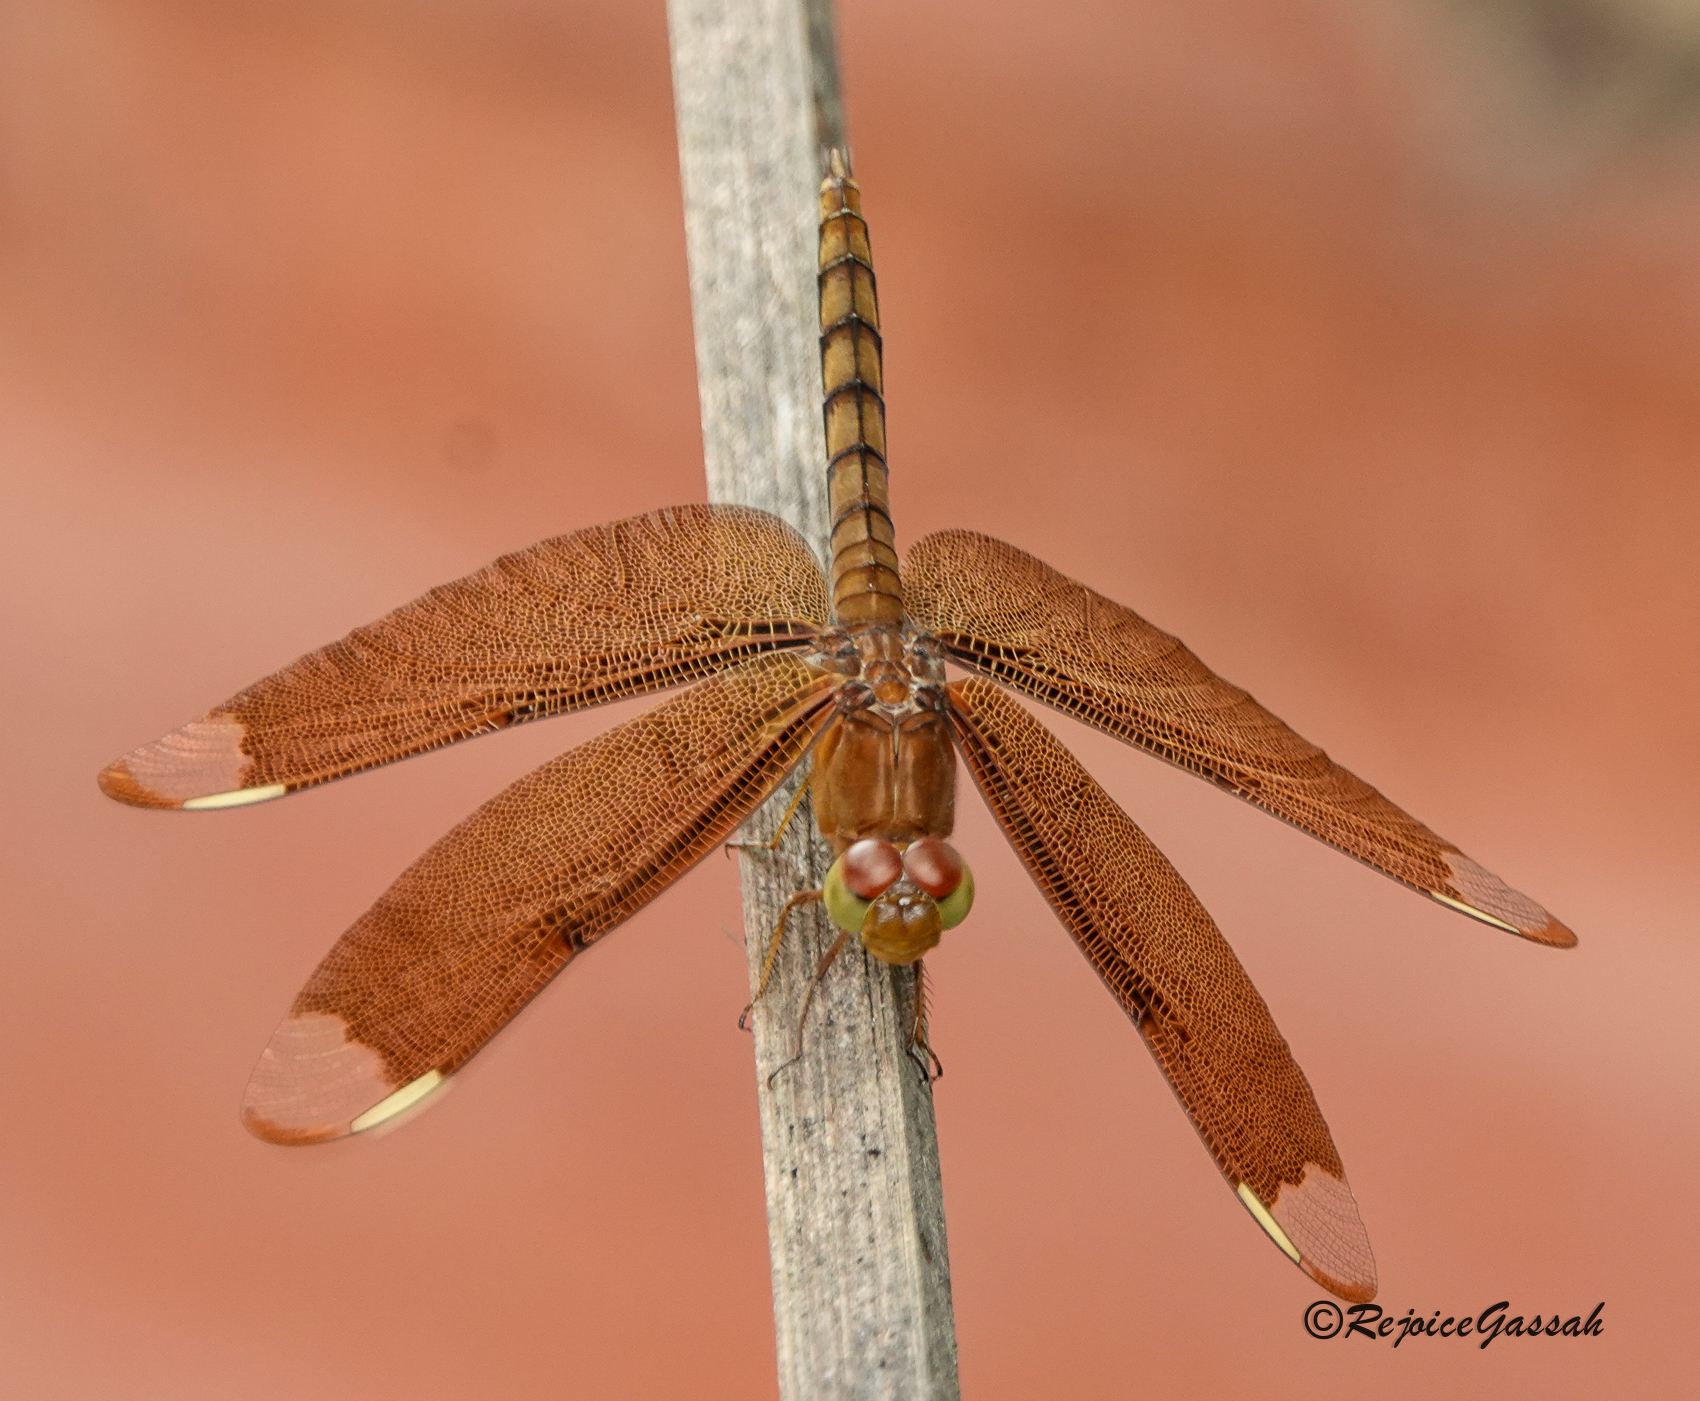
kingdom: Animalia
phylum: Arthropoda
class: Insecta
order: Odonata
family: Libellulidae
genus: Neurothemis
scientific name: Neurothemis fulvia
